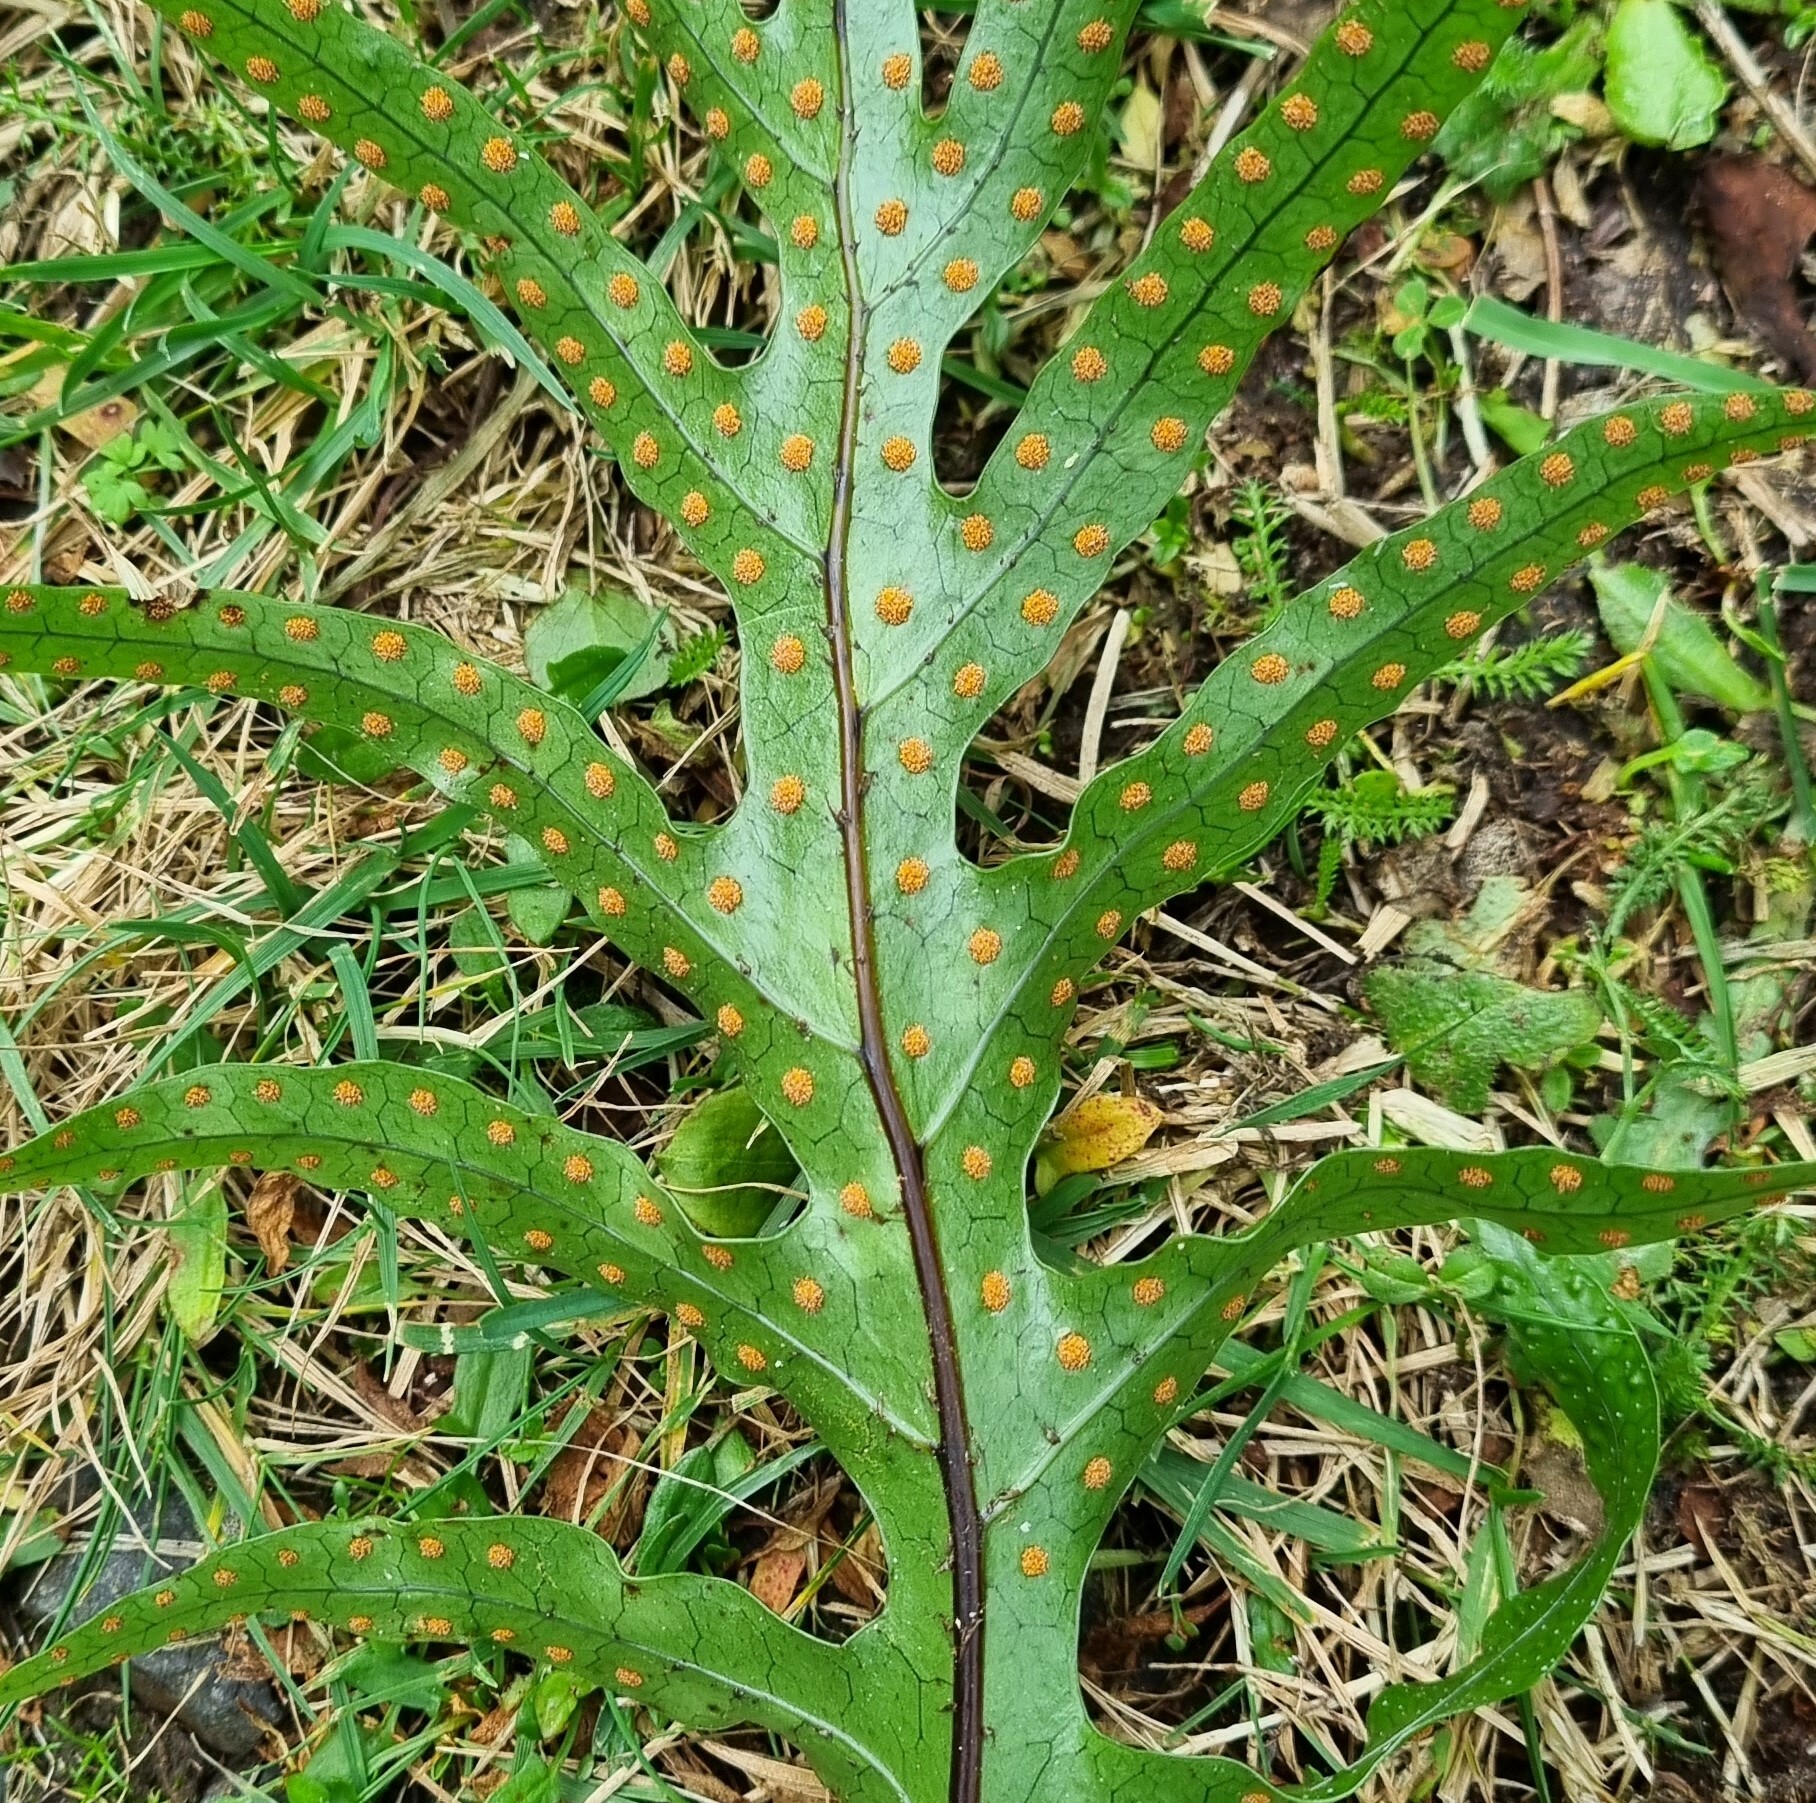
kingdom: Plantae
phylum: Tracheophyta
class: Polypodiopsida
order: Polypodiales
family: Polypodiaceae
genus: Lecanopteris
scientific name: Lecanopteris pustulata
